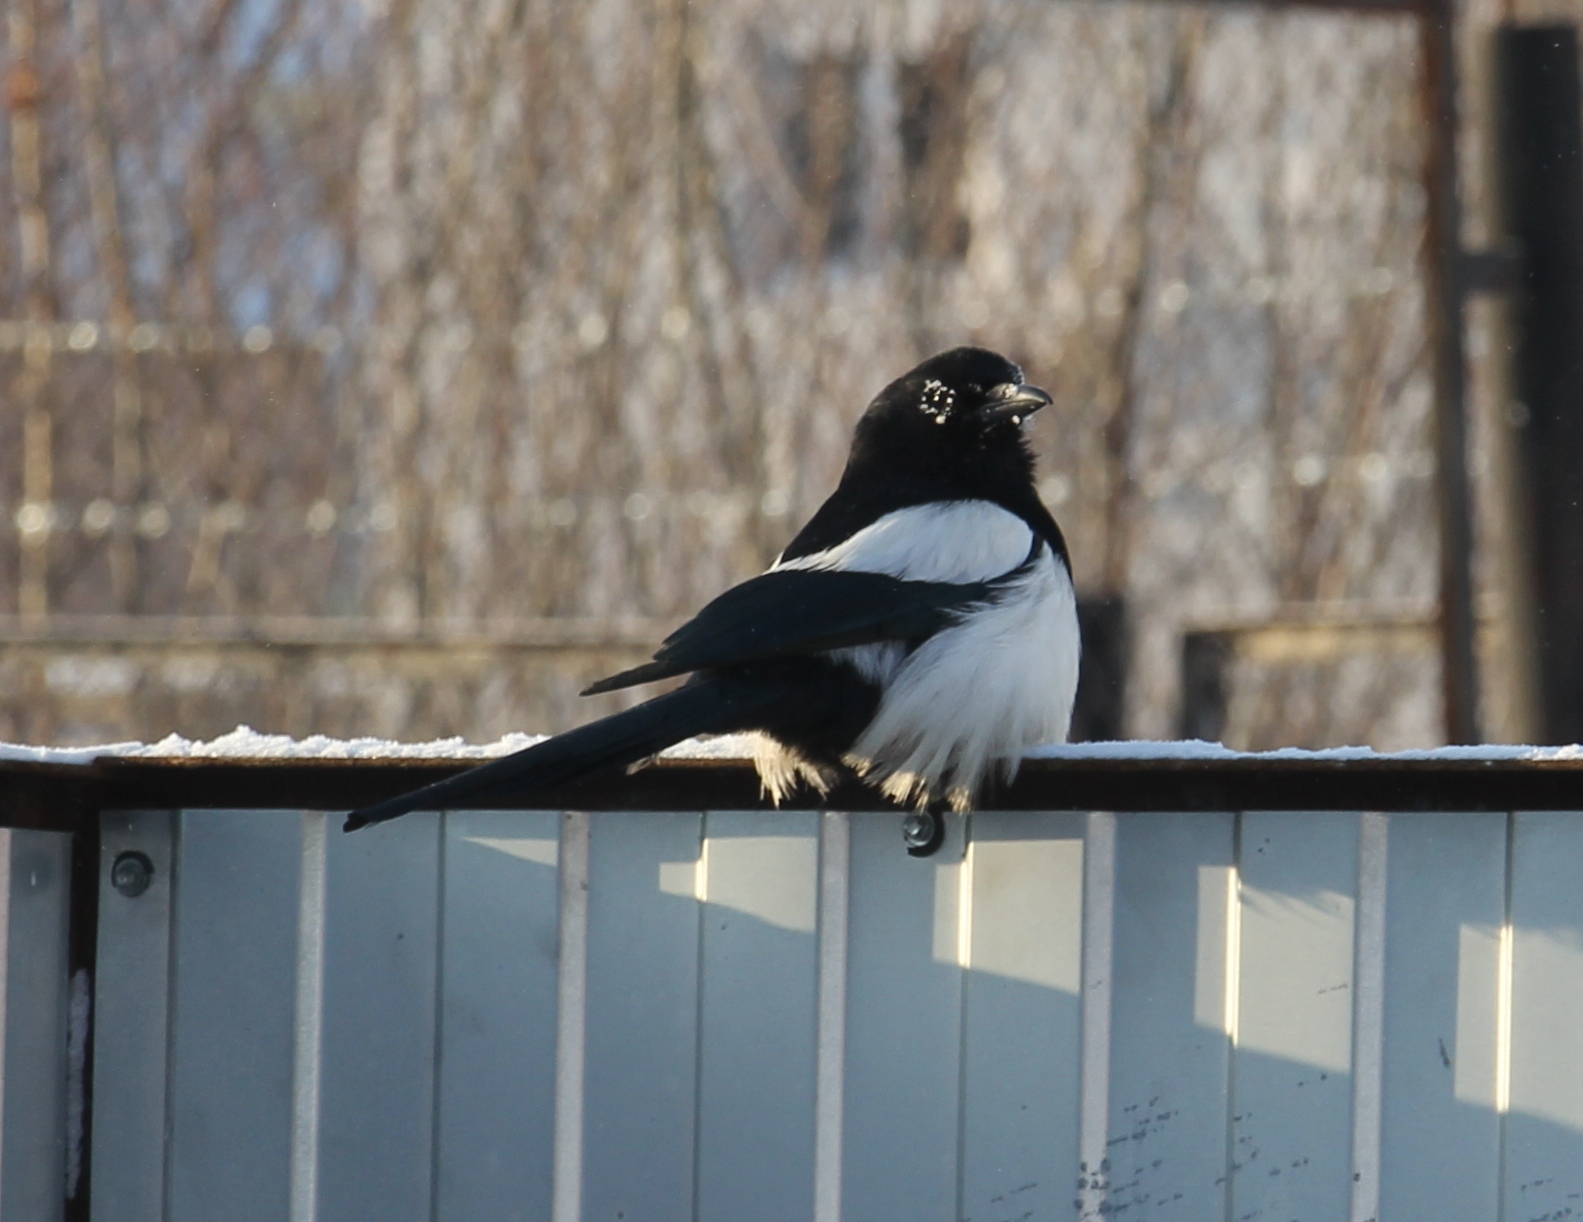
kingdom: Animalia
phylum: Chordata
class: Aves
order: Passeriformes
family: Corvidae
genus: Pica
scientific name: Pica pica
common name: Eurasian magpie
